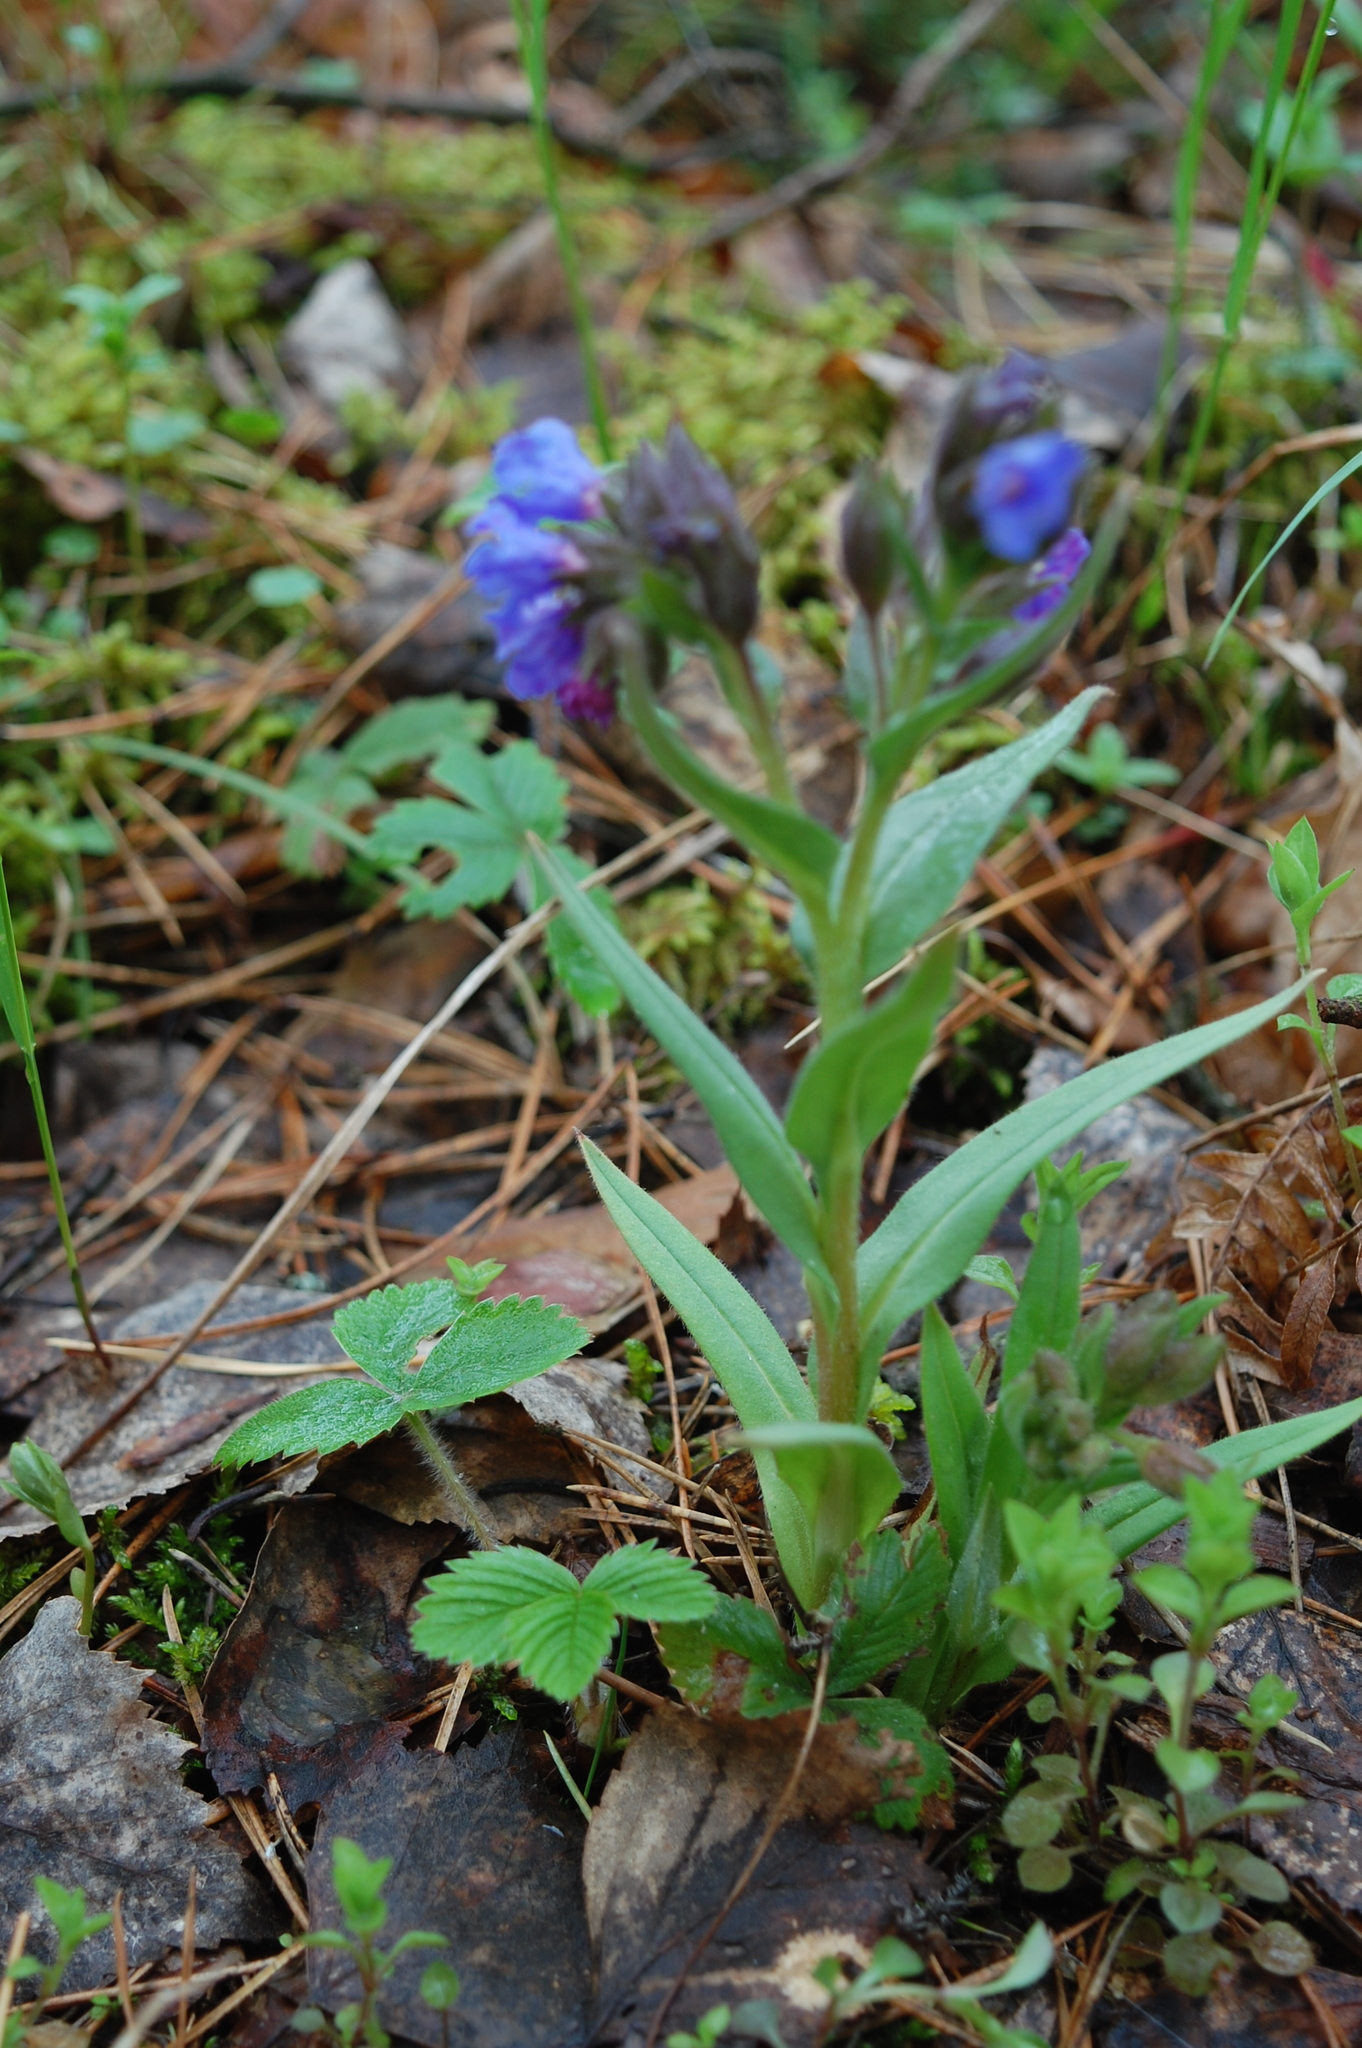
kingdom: Plantae
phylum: Tracheophyta
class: Magnoliopsida
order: Boraginales
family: Boraginaceae
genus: Pulmonaria
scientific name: Pulmonaria angustifolia
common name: Blue cowslip
